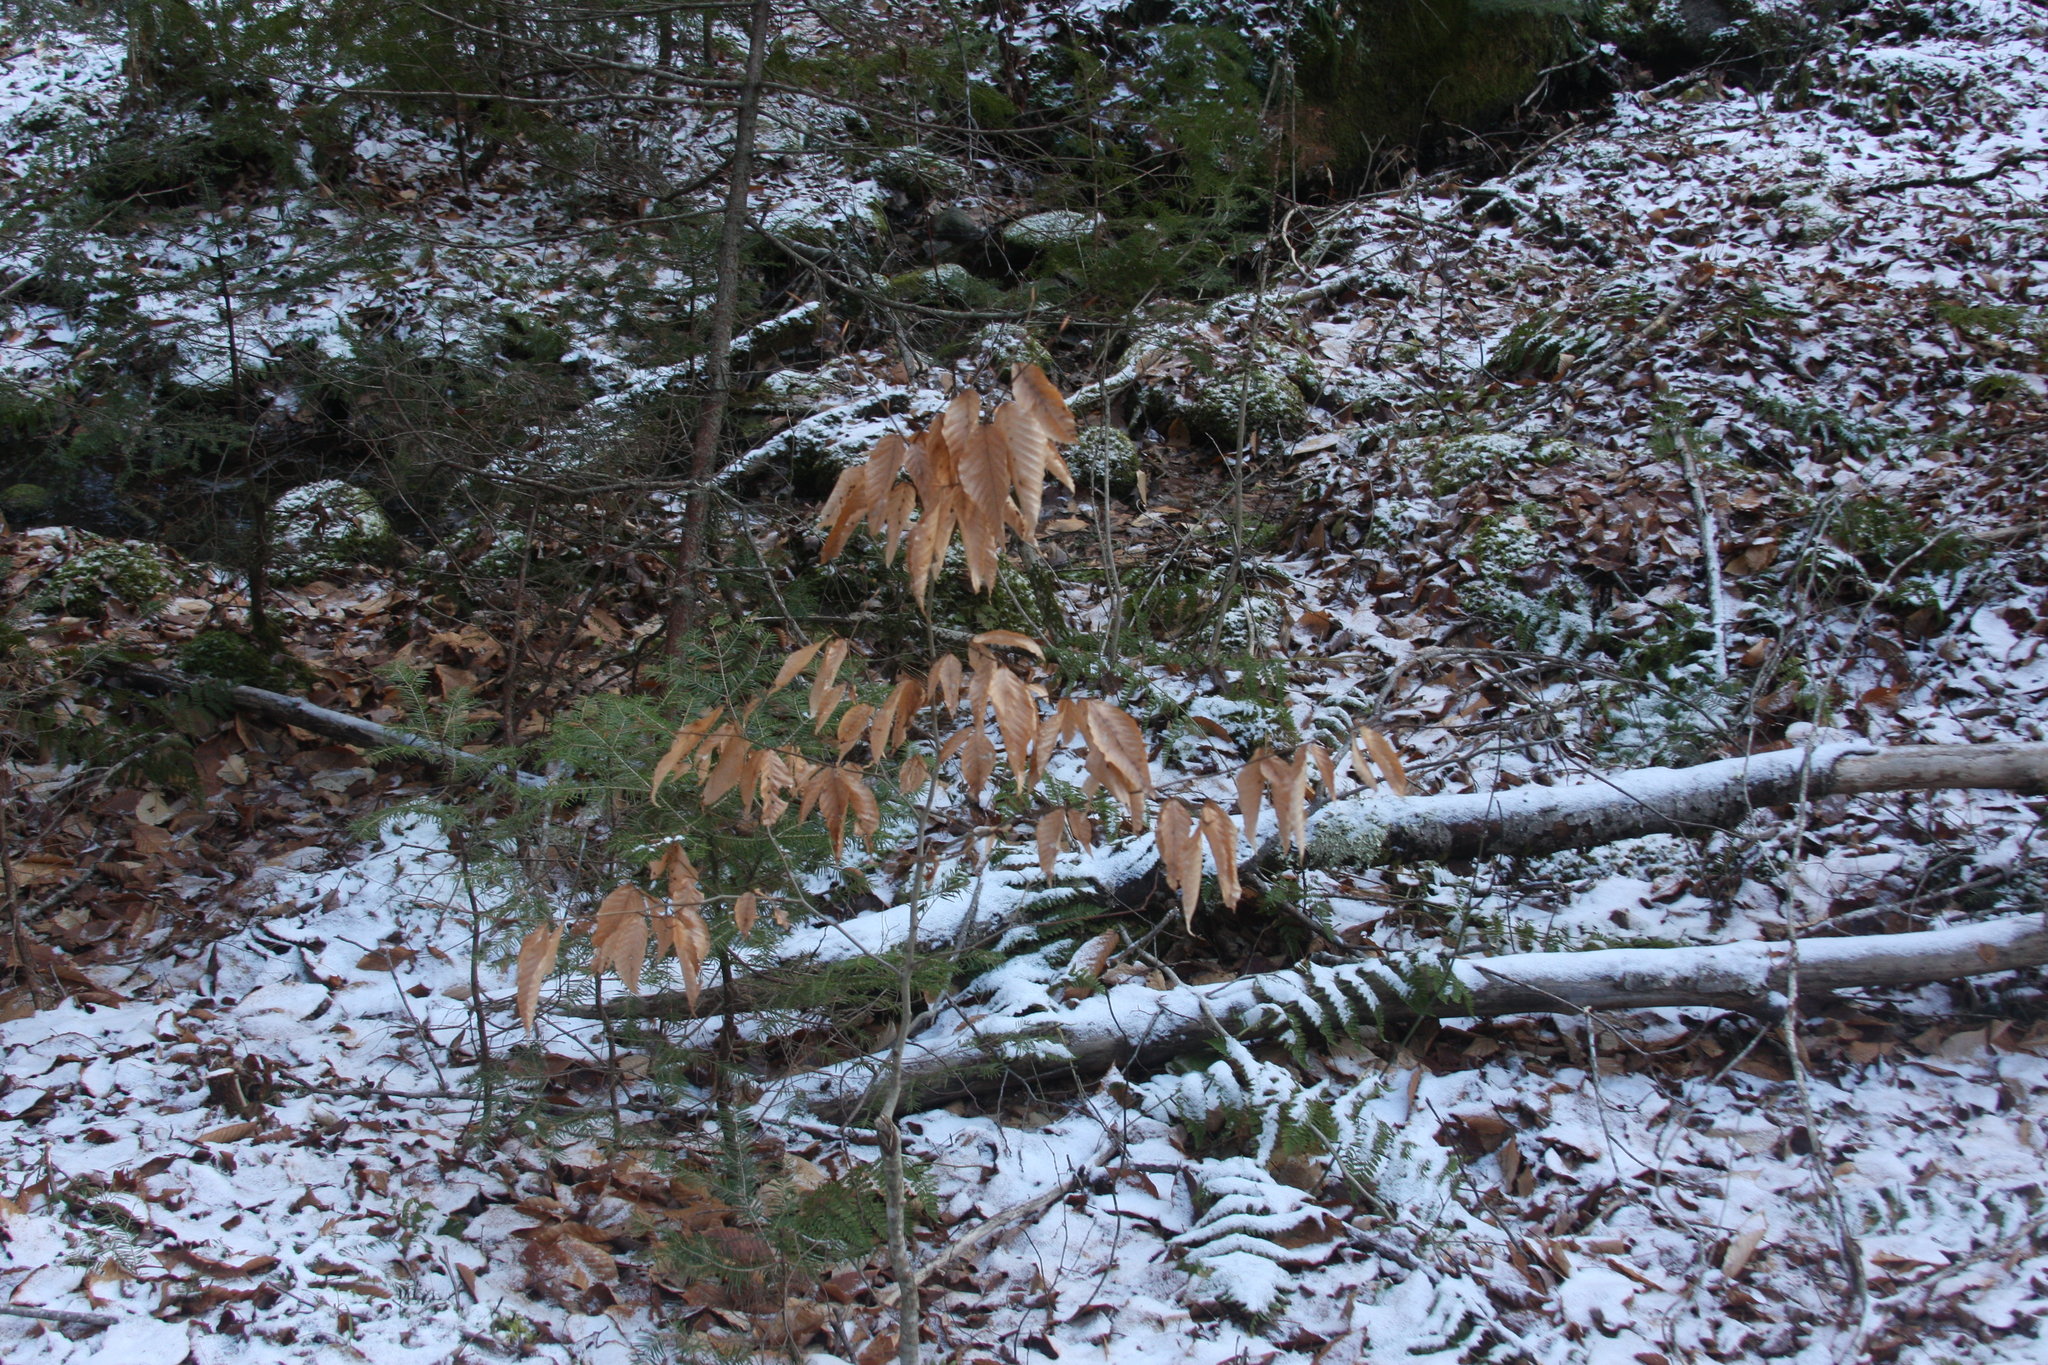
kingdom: Plantae
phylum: Tracheophyta
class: Magnoliopsida
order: Fagales
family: Fagaceae
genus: Fagus
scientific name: Fagus grandifolia
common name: American beech
